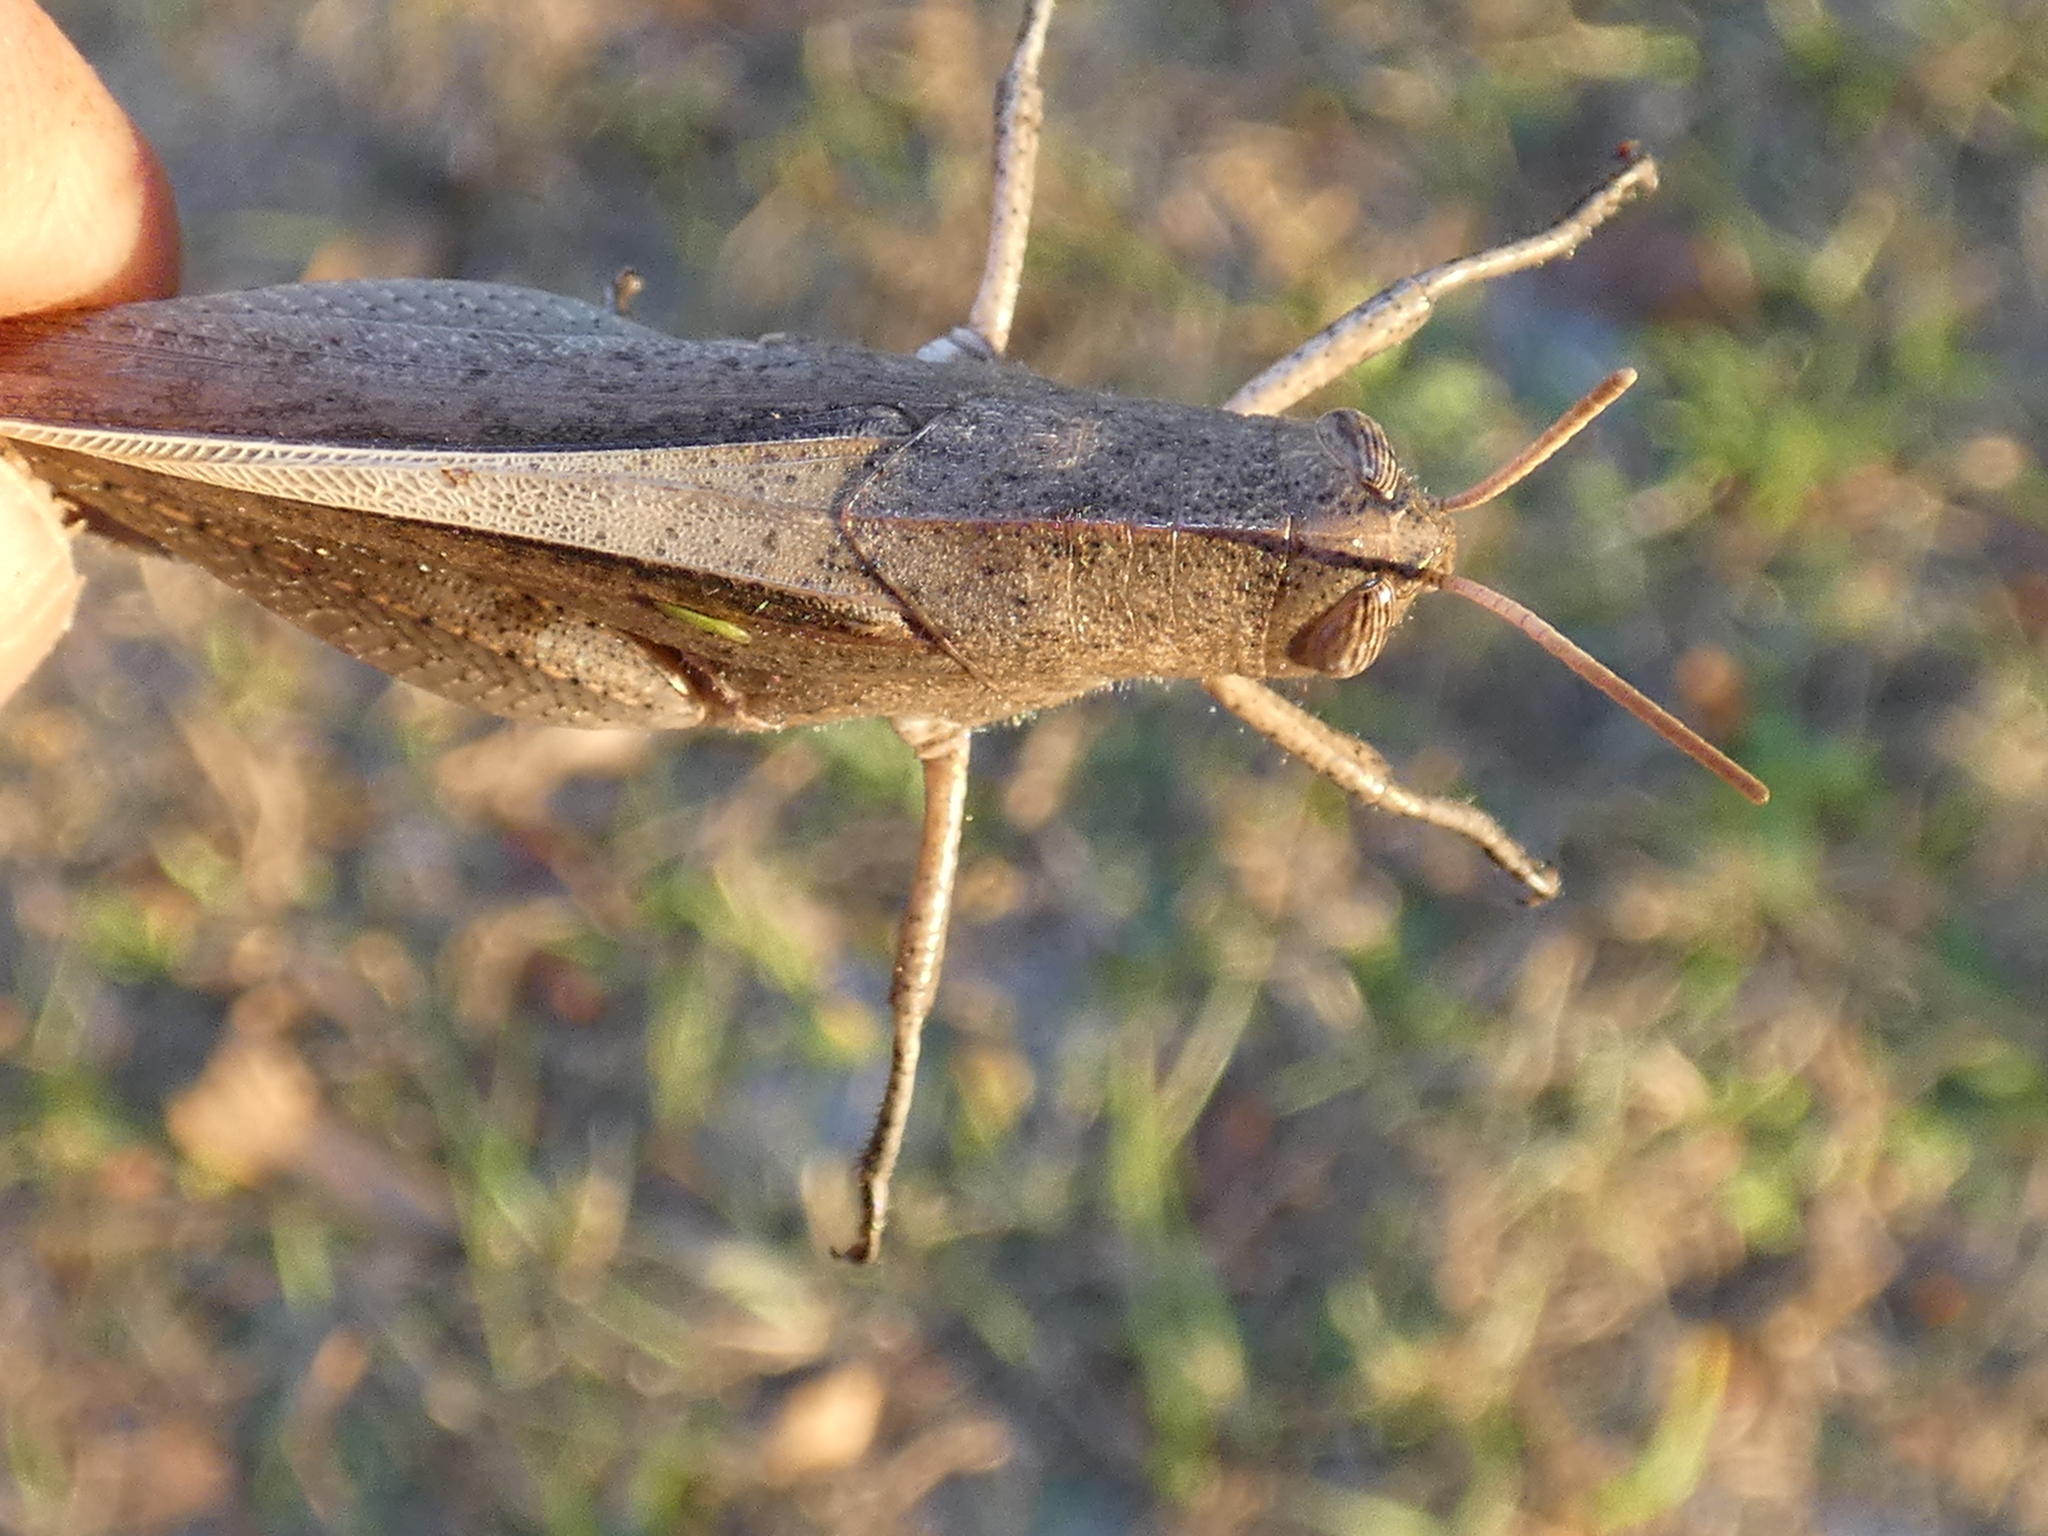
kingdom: Animalia
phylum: Arthropoda
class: Insecta
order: Orthoptera
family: Acrididae
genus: Schistocerca
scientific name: Schistocerca damnifica
